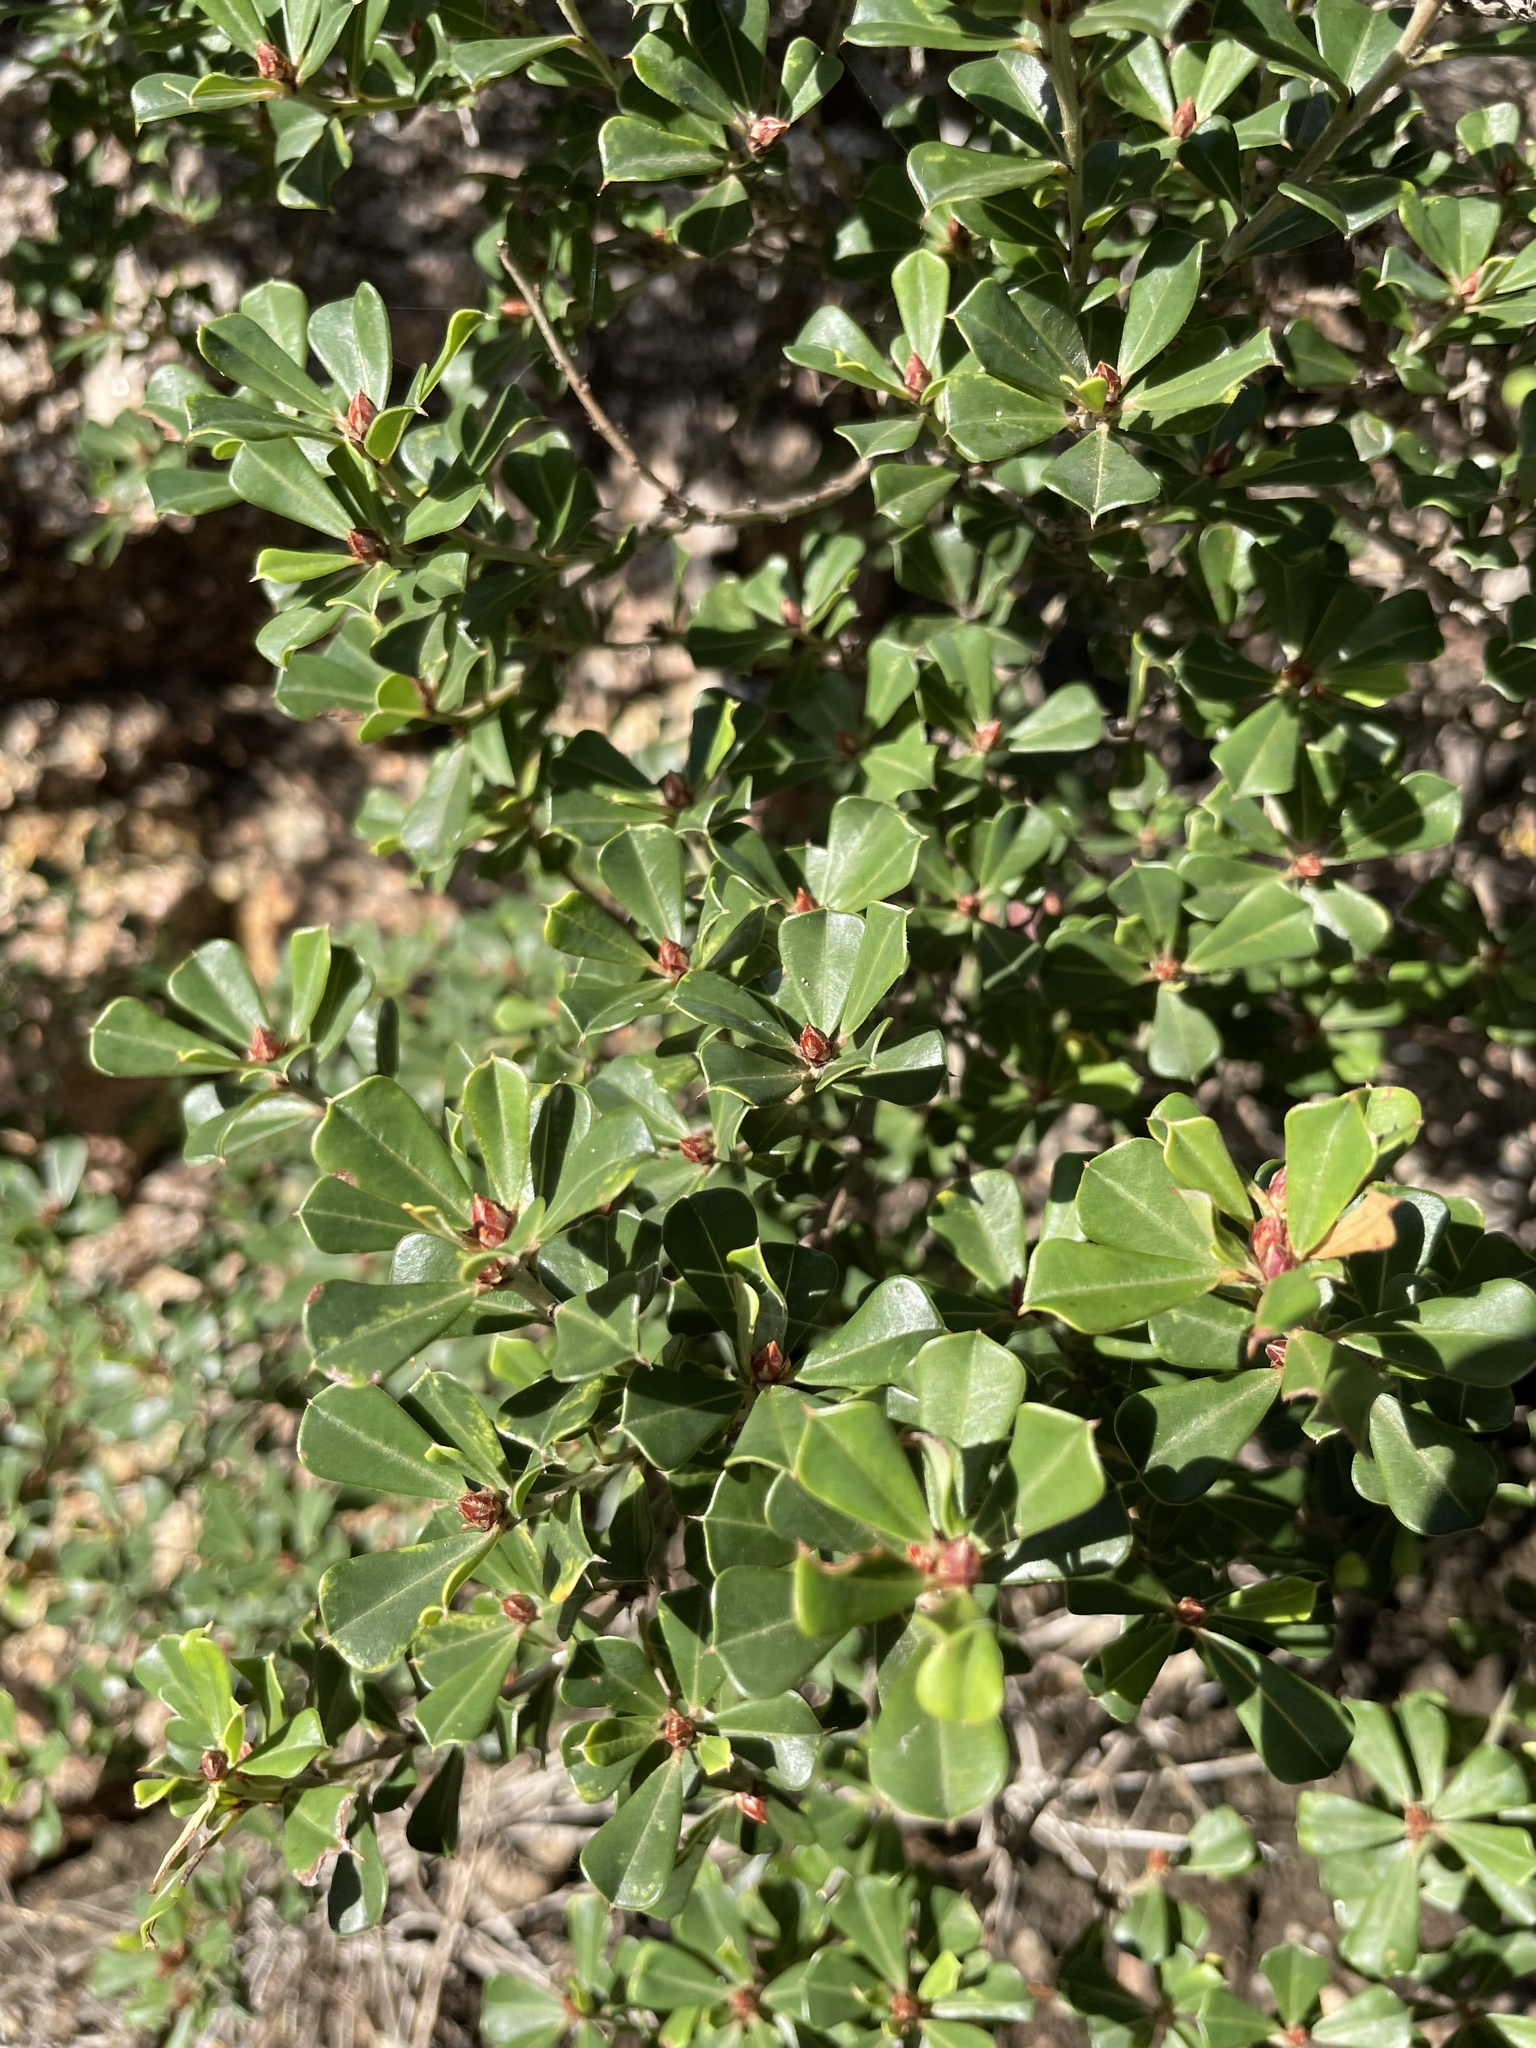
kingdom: Plantae
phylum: Tracheophyta
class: Magnoliopsida
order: Fabales
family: Fabaceae
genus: Pultenaea
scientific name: Pultenaea daphnoides
